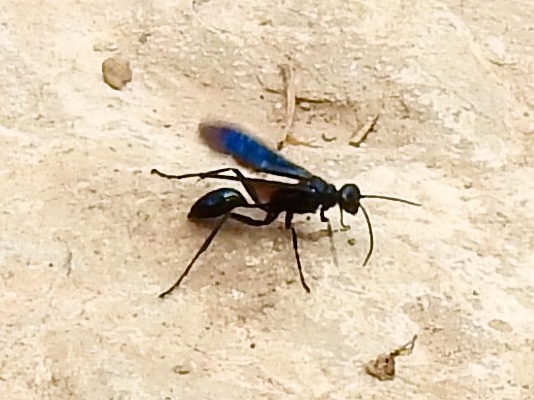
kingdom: Animalia
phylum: Arthropoda
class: Insecta
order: Hymenoptera
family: Sphecidae
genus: Chalybion
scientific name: Chalybion californicum
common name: Mud dauber
